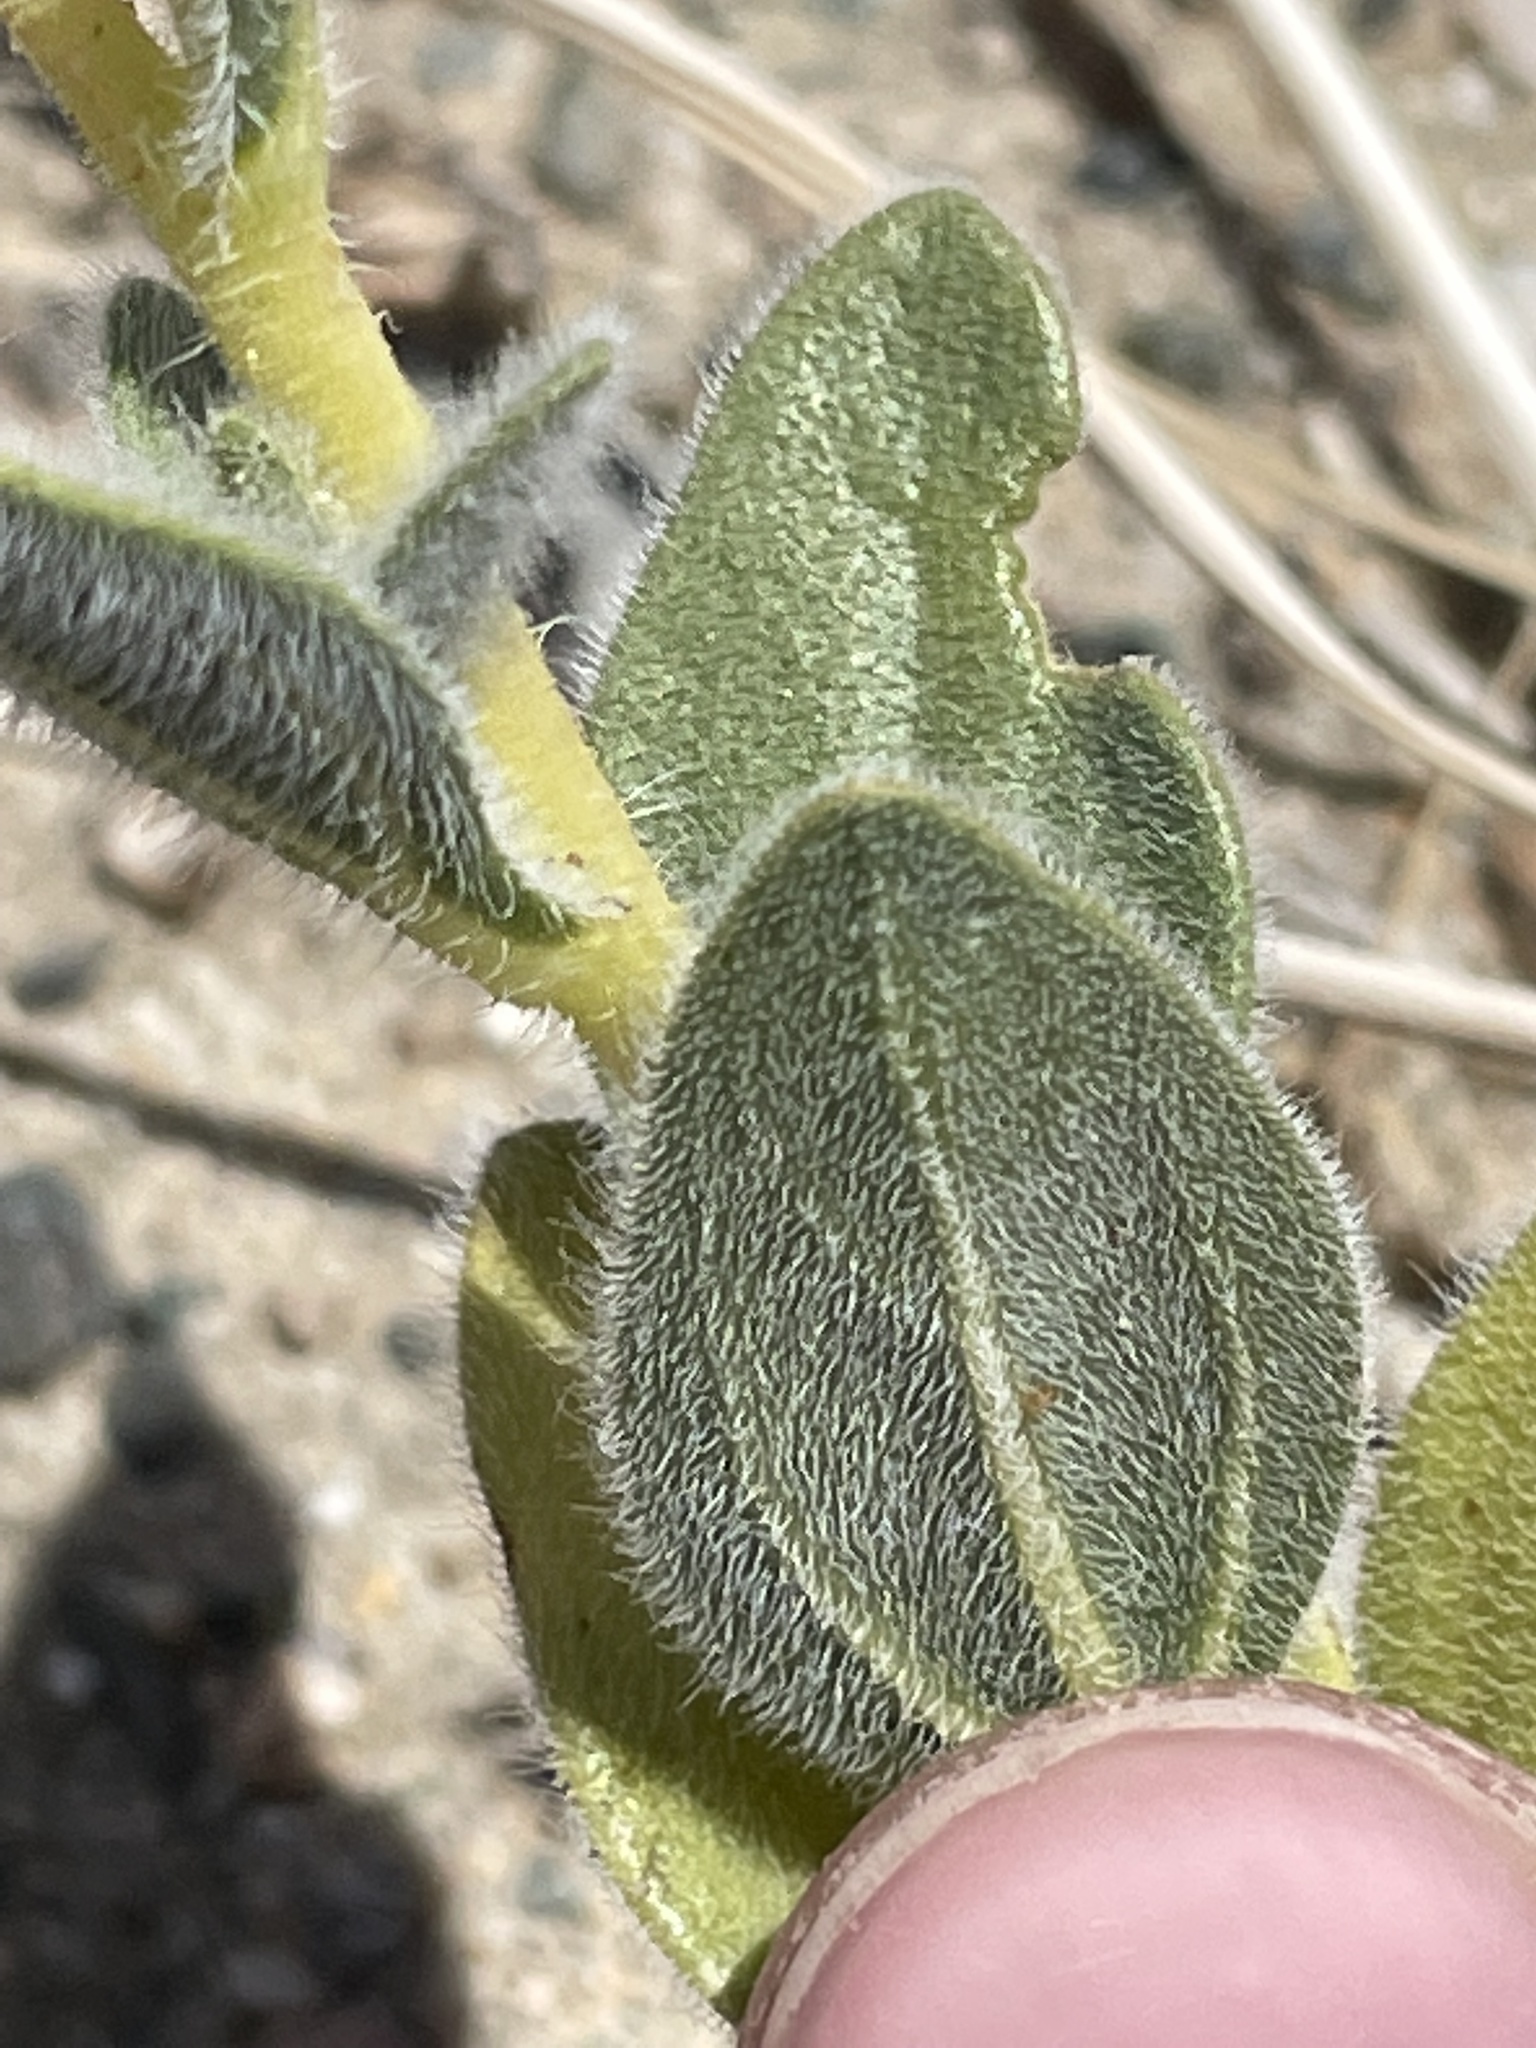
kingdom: Plantae
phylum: Tracheophyta
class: Magnoliopsida
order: Asterales
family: Asteraceae
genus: Geraea
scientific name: Geraea canescens
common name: Desert-gold
